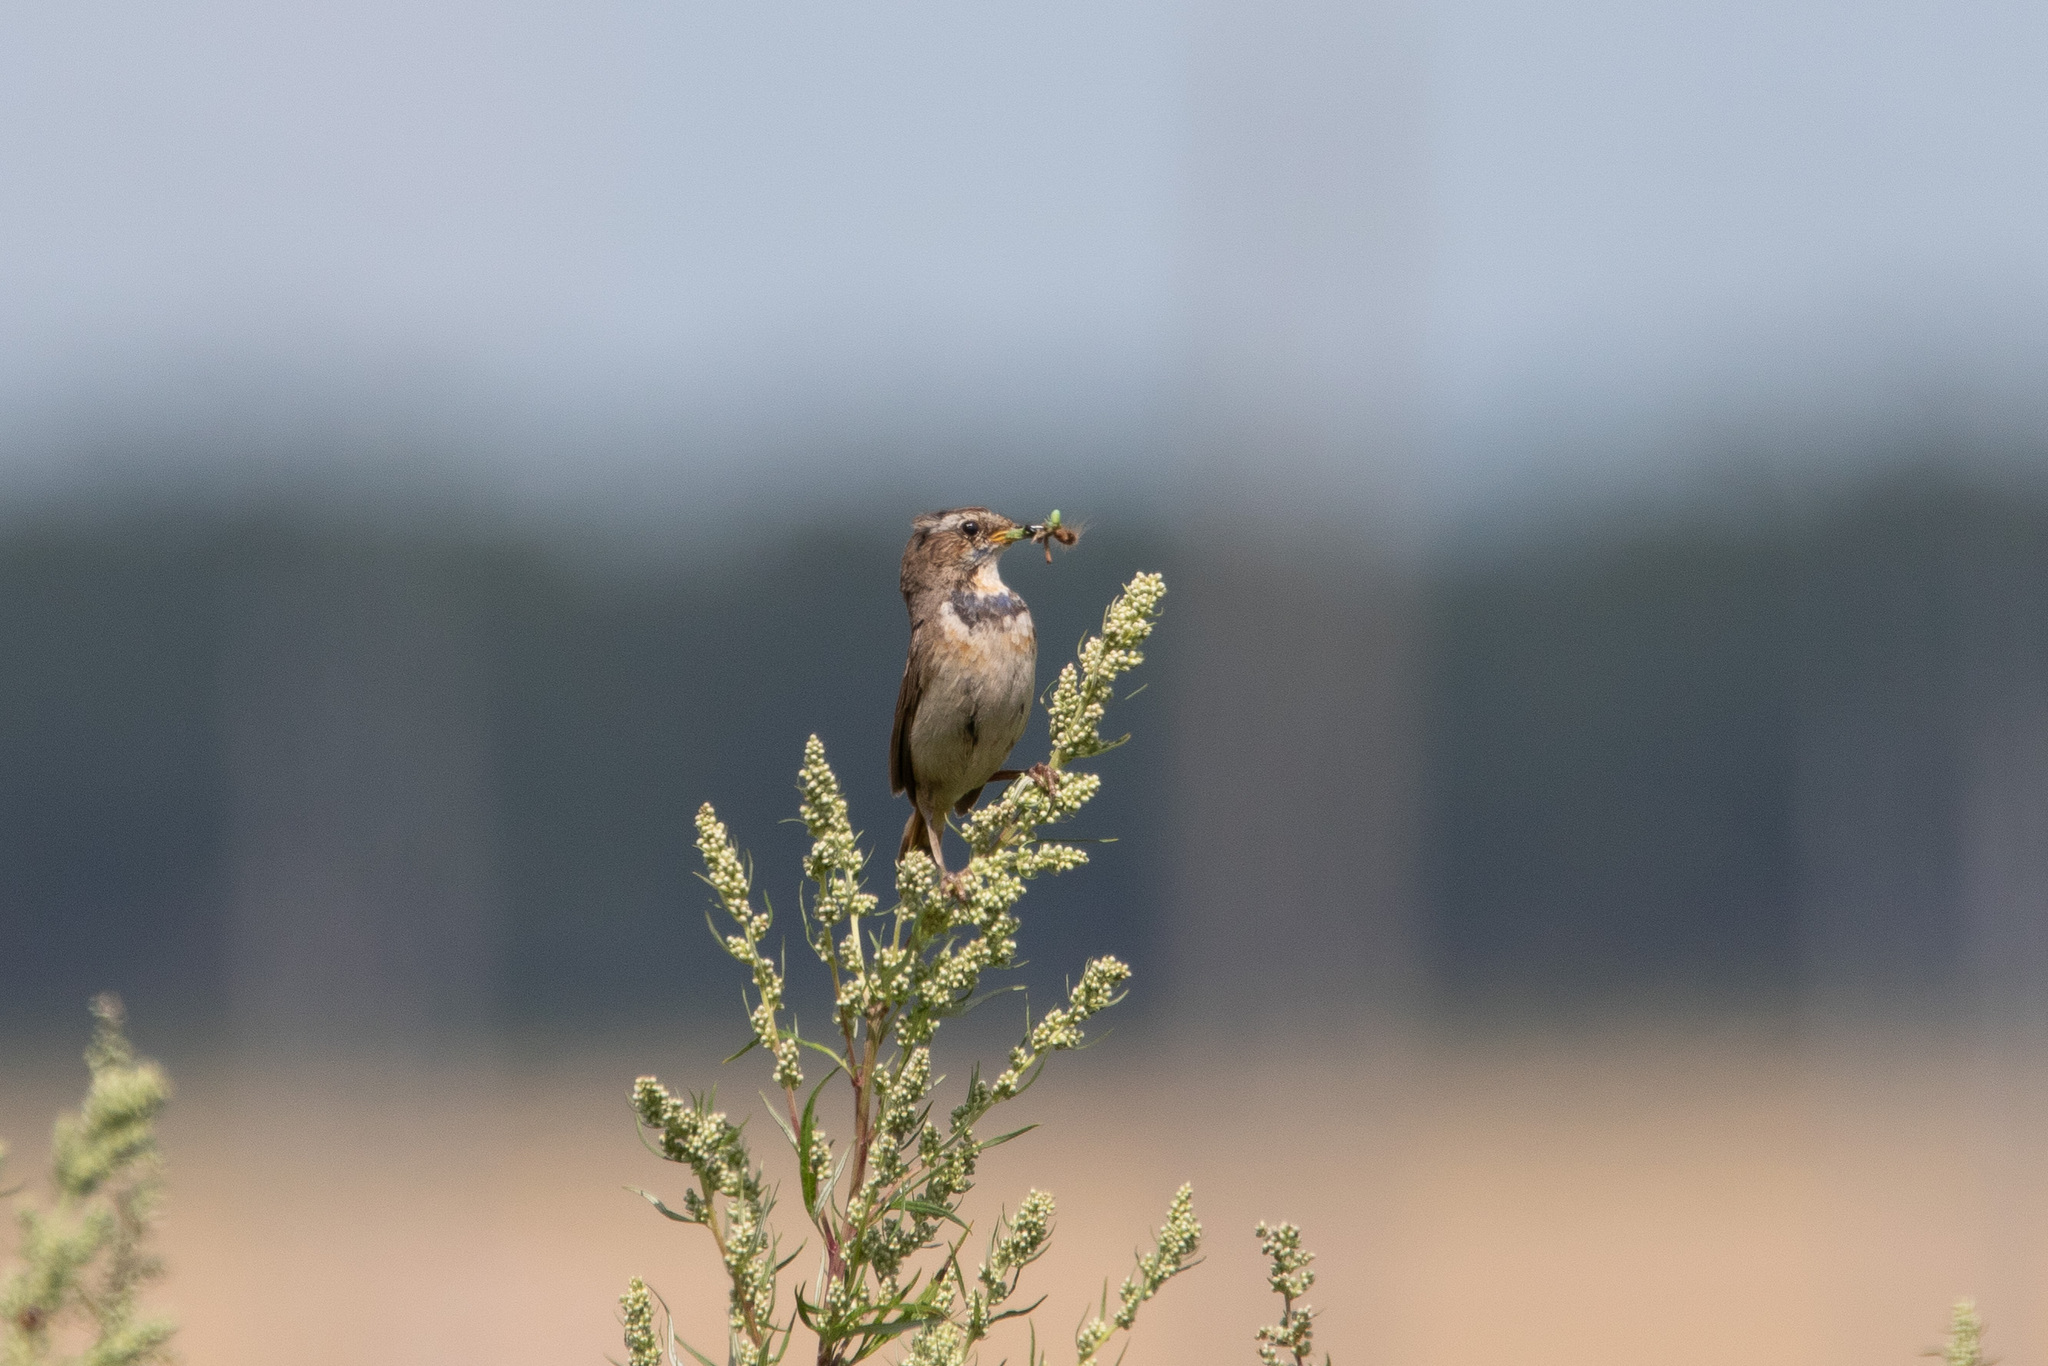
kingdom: Animalia
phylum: Chordata
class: Aves
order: Passeriformes
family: Muscicapidae
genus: Luscinia
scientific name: Luscinia svecica
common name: Bluethroat
